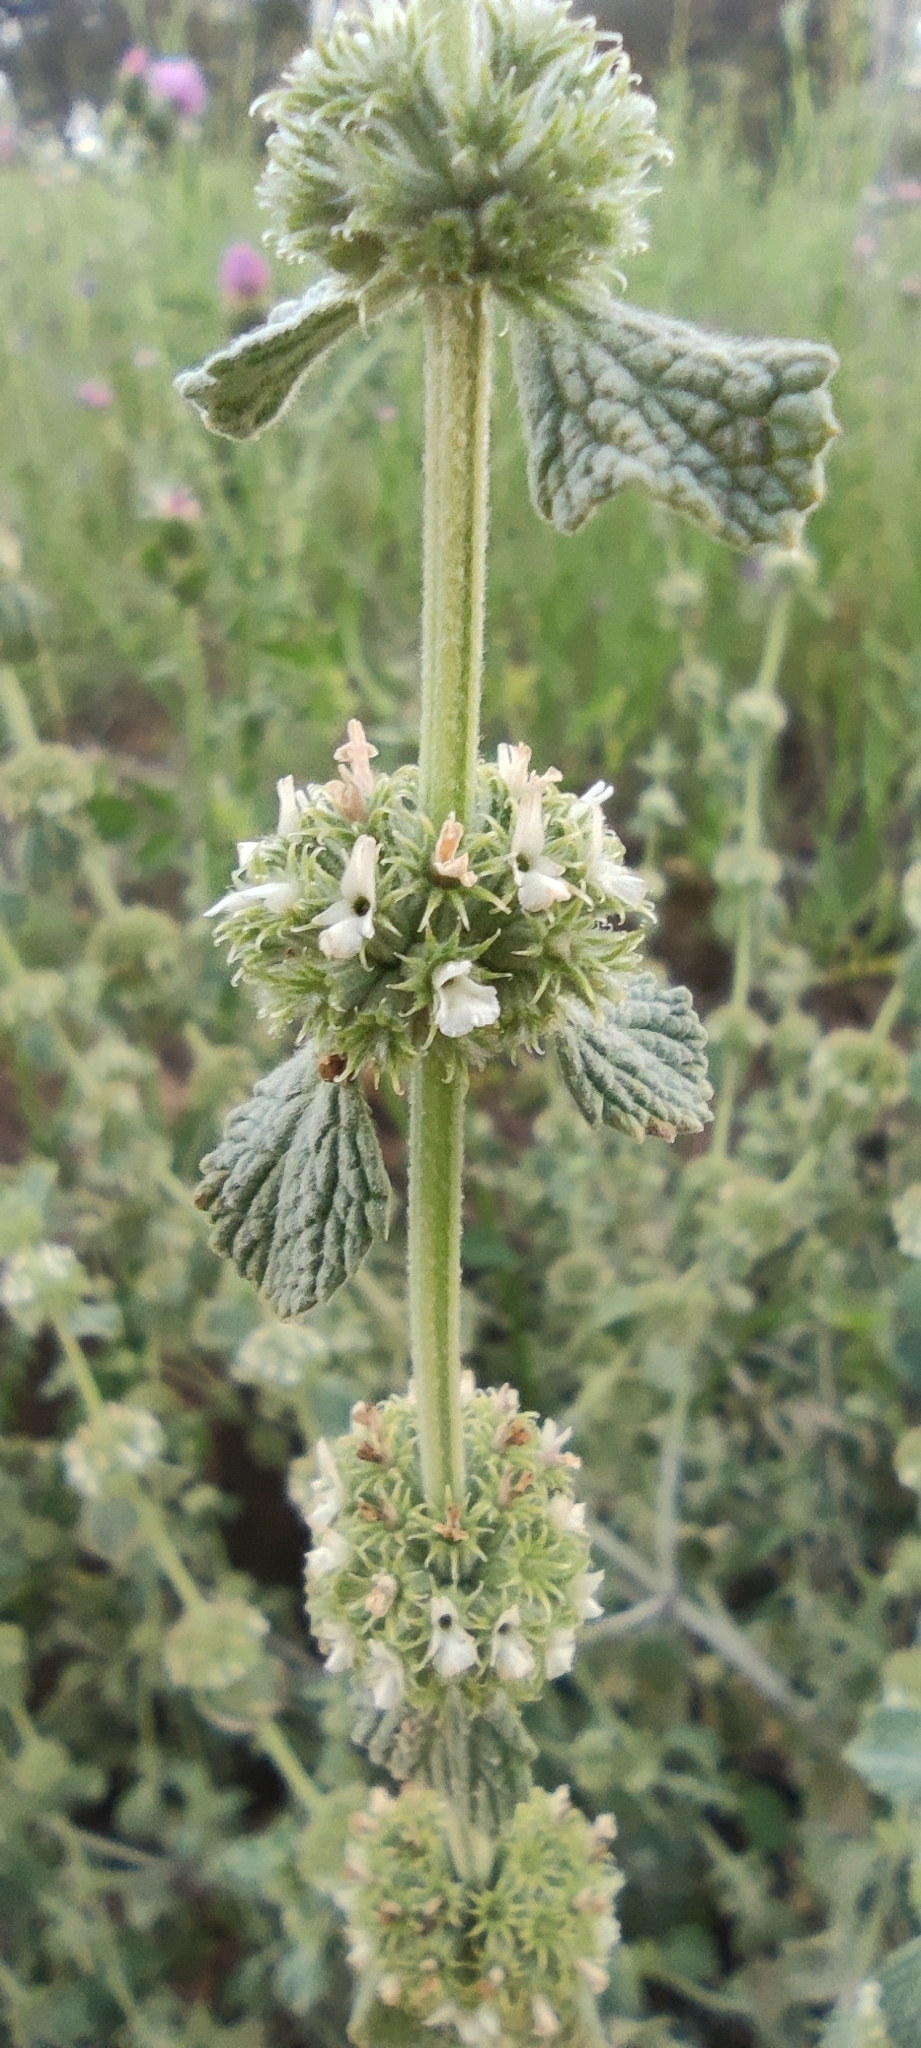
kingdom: Plantae
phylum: Tracheophyta
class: Magnoliopsida
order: Lamiales
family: Lamiaceae
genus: Marrubium
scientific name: Marrubium vulgare
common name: Horehound
